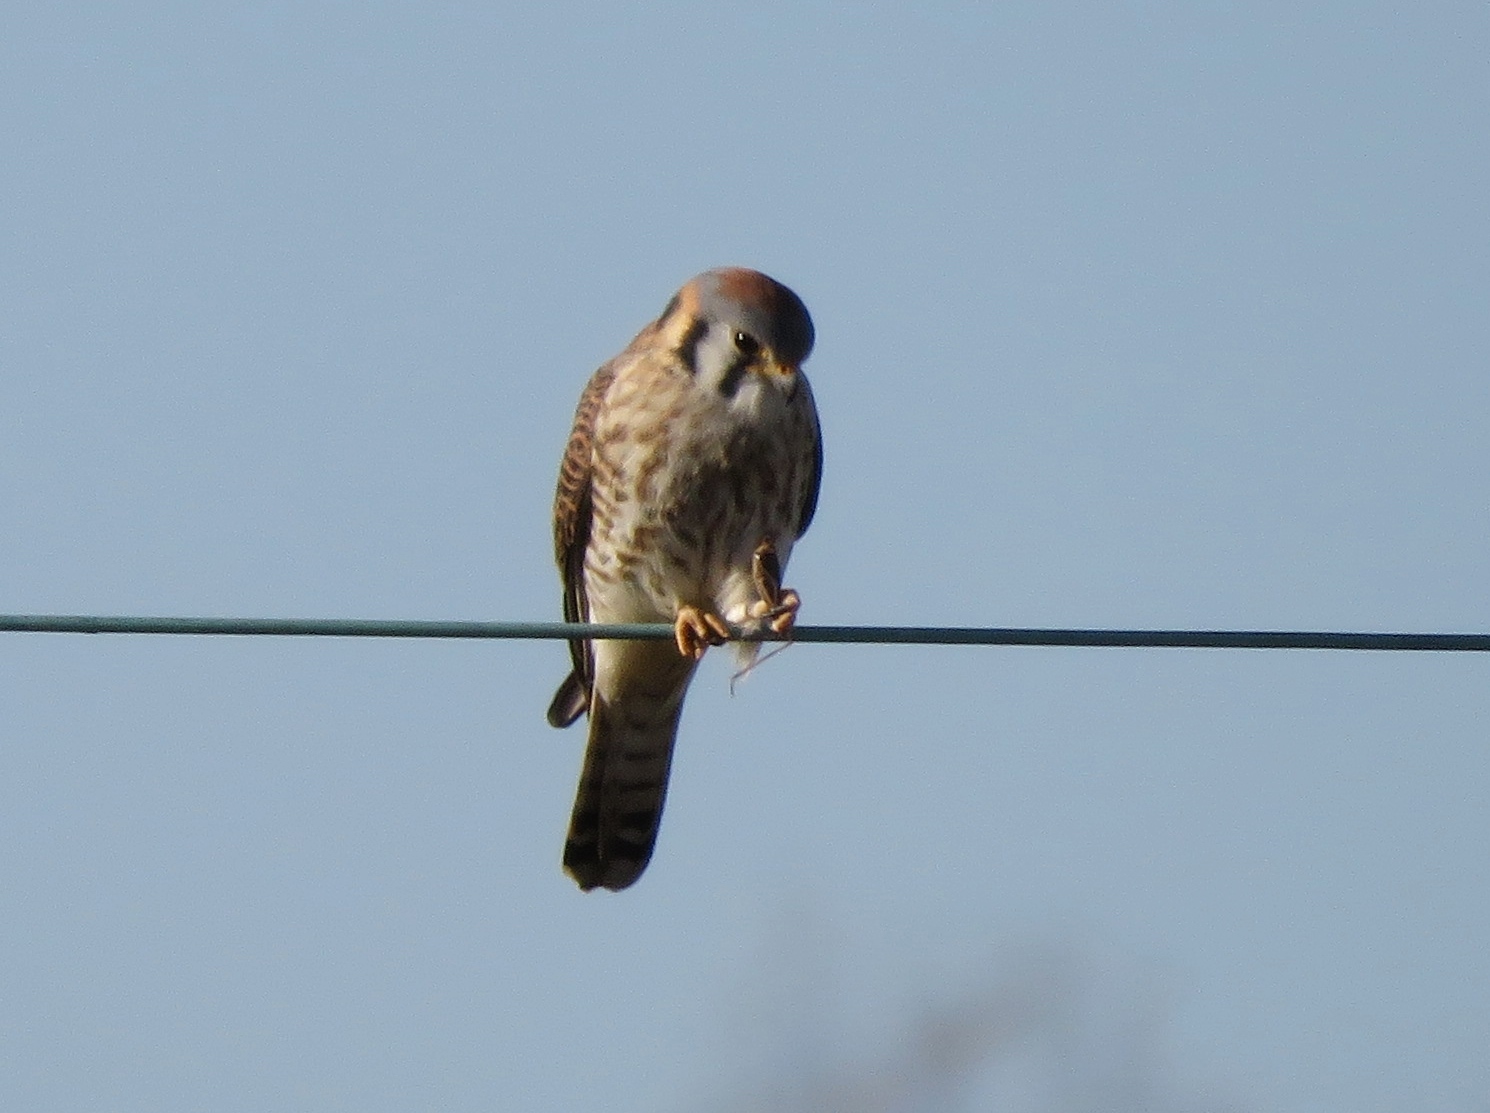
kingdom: Animalia
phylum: Chordata
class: Aves
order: Falconiformes
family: Falconidae
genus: Falco
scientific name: Falco sparverius
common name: American kestrel
